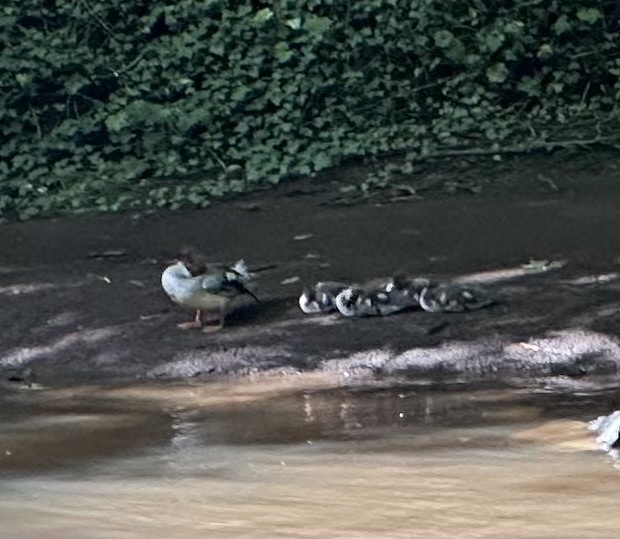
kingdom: Animalia
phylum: Chordata
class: Aves
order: Anseriformes
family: Anatidae
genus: Mergus
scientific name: Mergus merganser
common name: Common merganser
